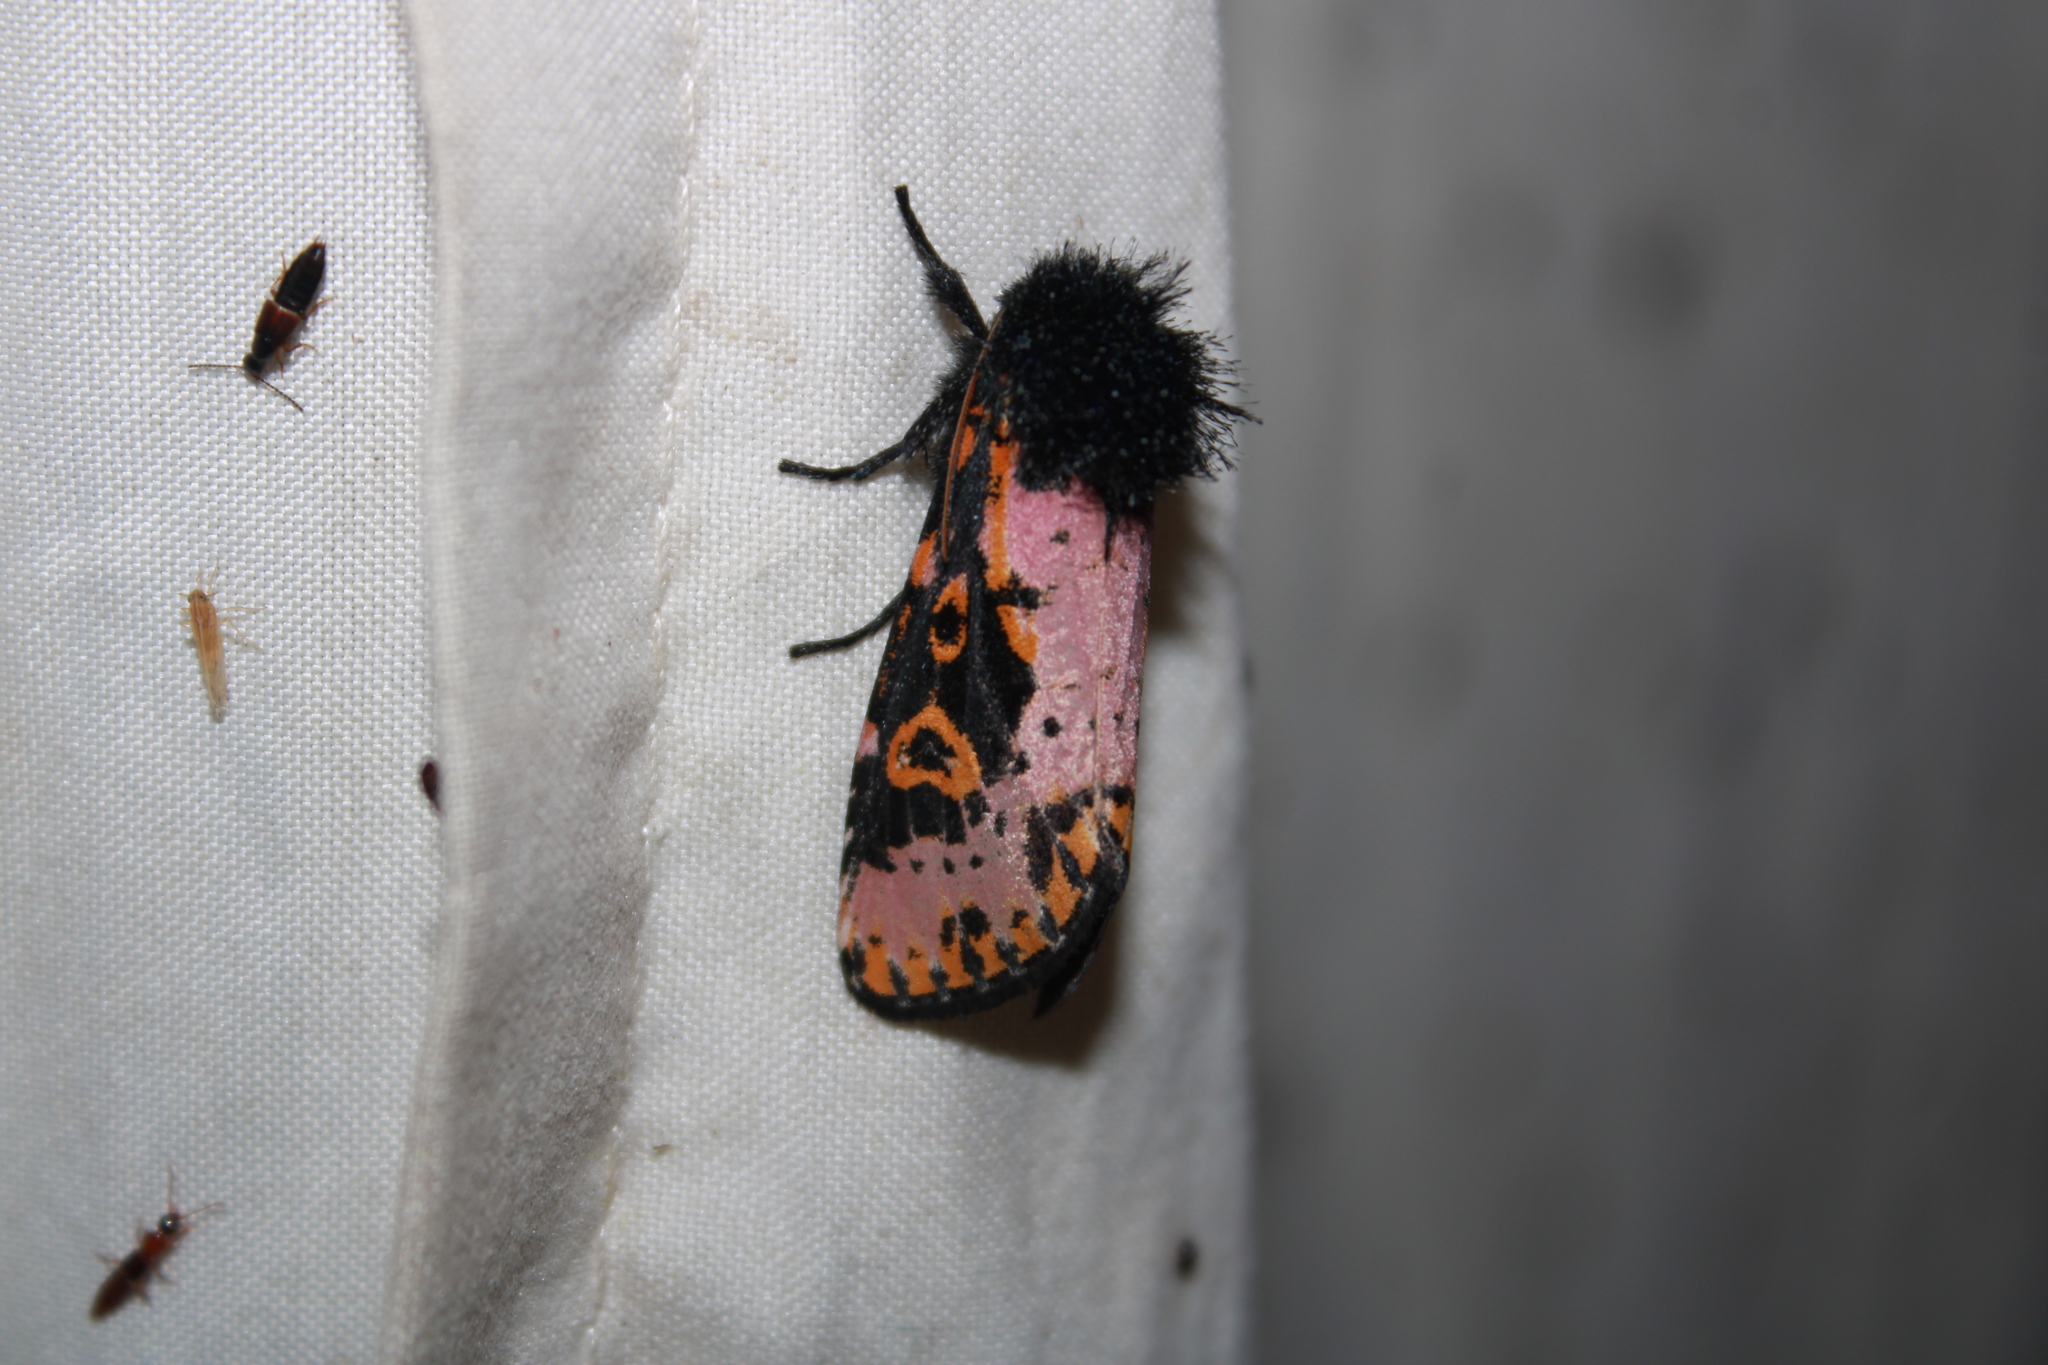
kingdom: Animalia
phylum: Arthropoda
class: Insecta
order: Lepidoptera
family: Noctuidae
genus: Xanthopastis
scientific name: Xanthopastis regnatrix
